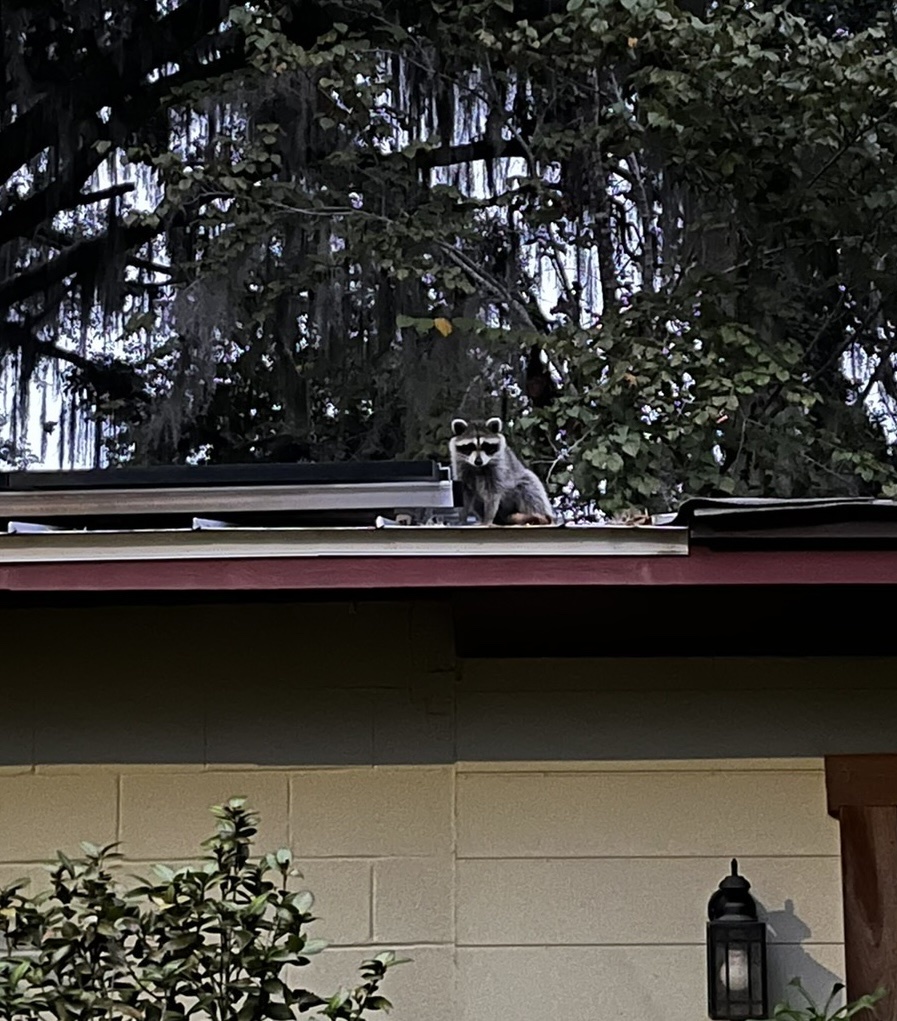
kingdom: Animalia
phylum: Chordata
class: Mammalia
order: Carnivora
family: Procyonidae
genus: Procyon
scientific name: Procyon lotor
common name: Raccoon
